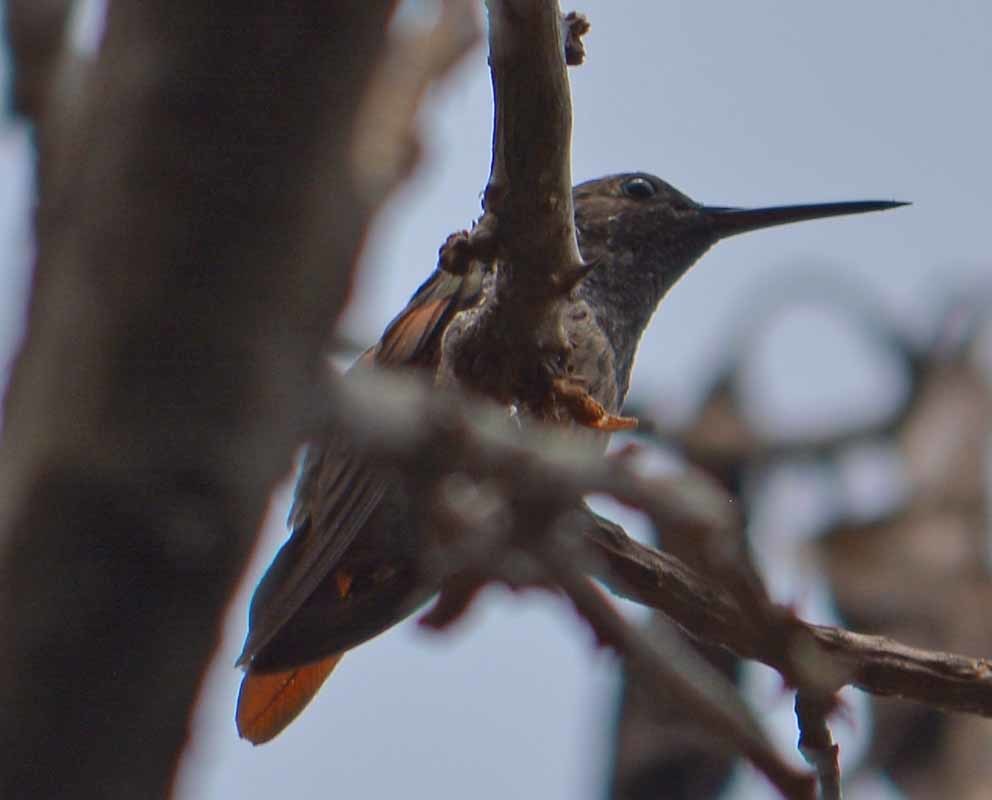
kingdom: Animalia
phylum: Chordata
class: Aves
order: Apodiformes
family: Trochilidae
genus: Saucerottia
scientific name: Saucerottia beryllina
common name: Berylline hummingbird
